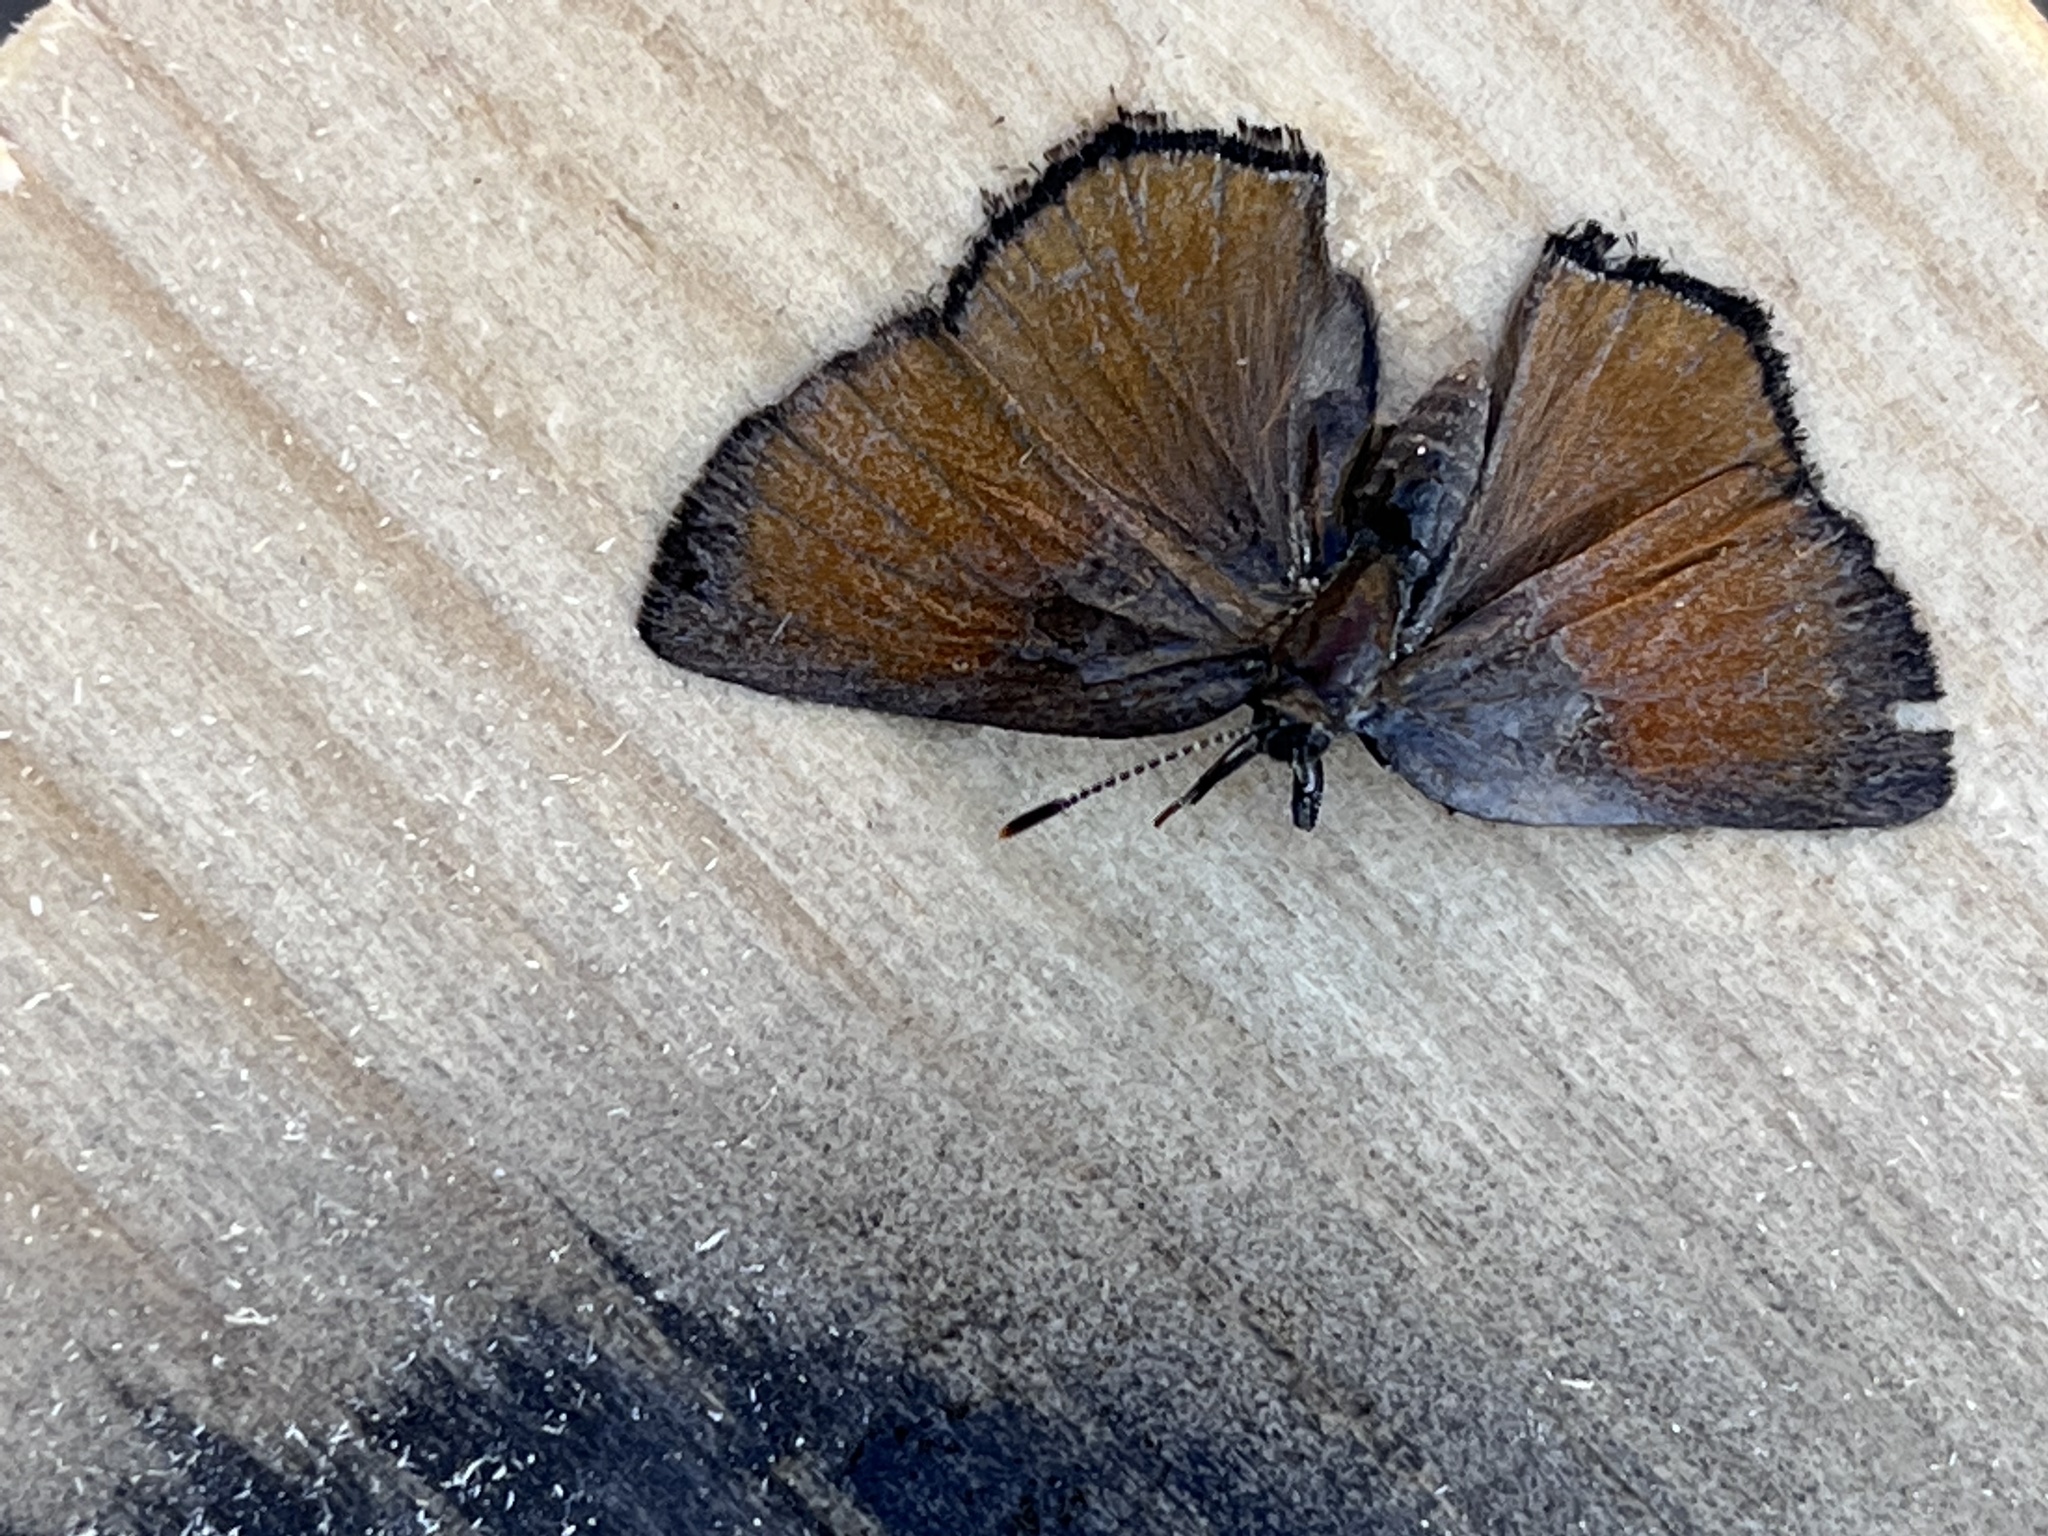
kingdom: Animalia
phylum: Arthropoda
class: Insecta
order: Lepidoptera
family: Lycaenidae
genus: Sandia
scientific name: Sandia mcfarlandi
